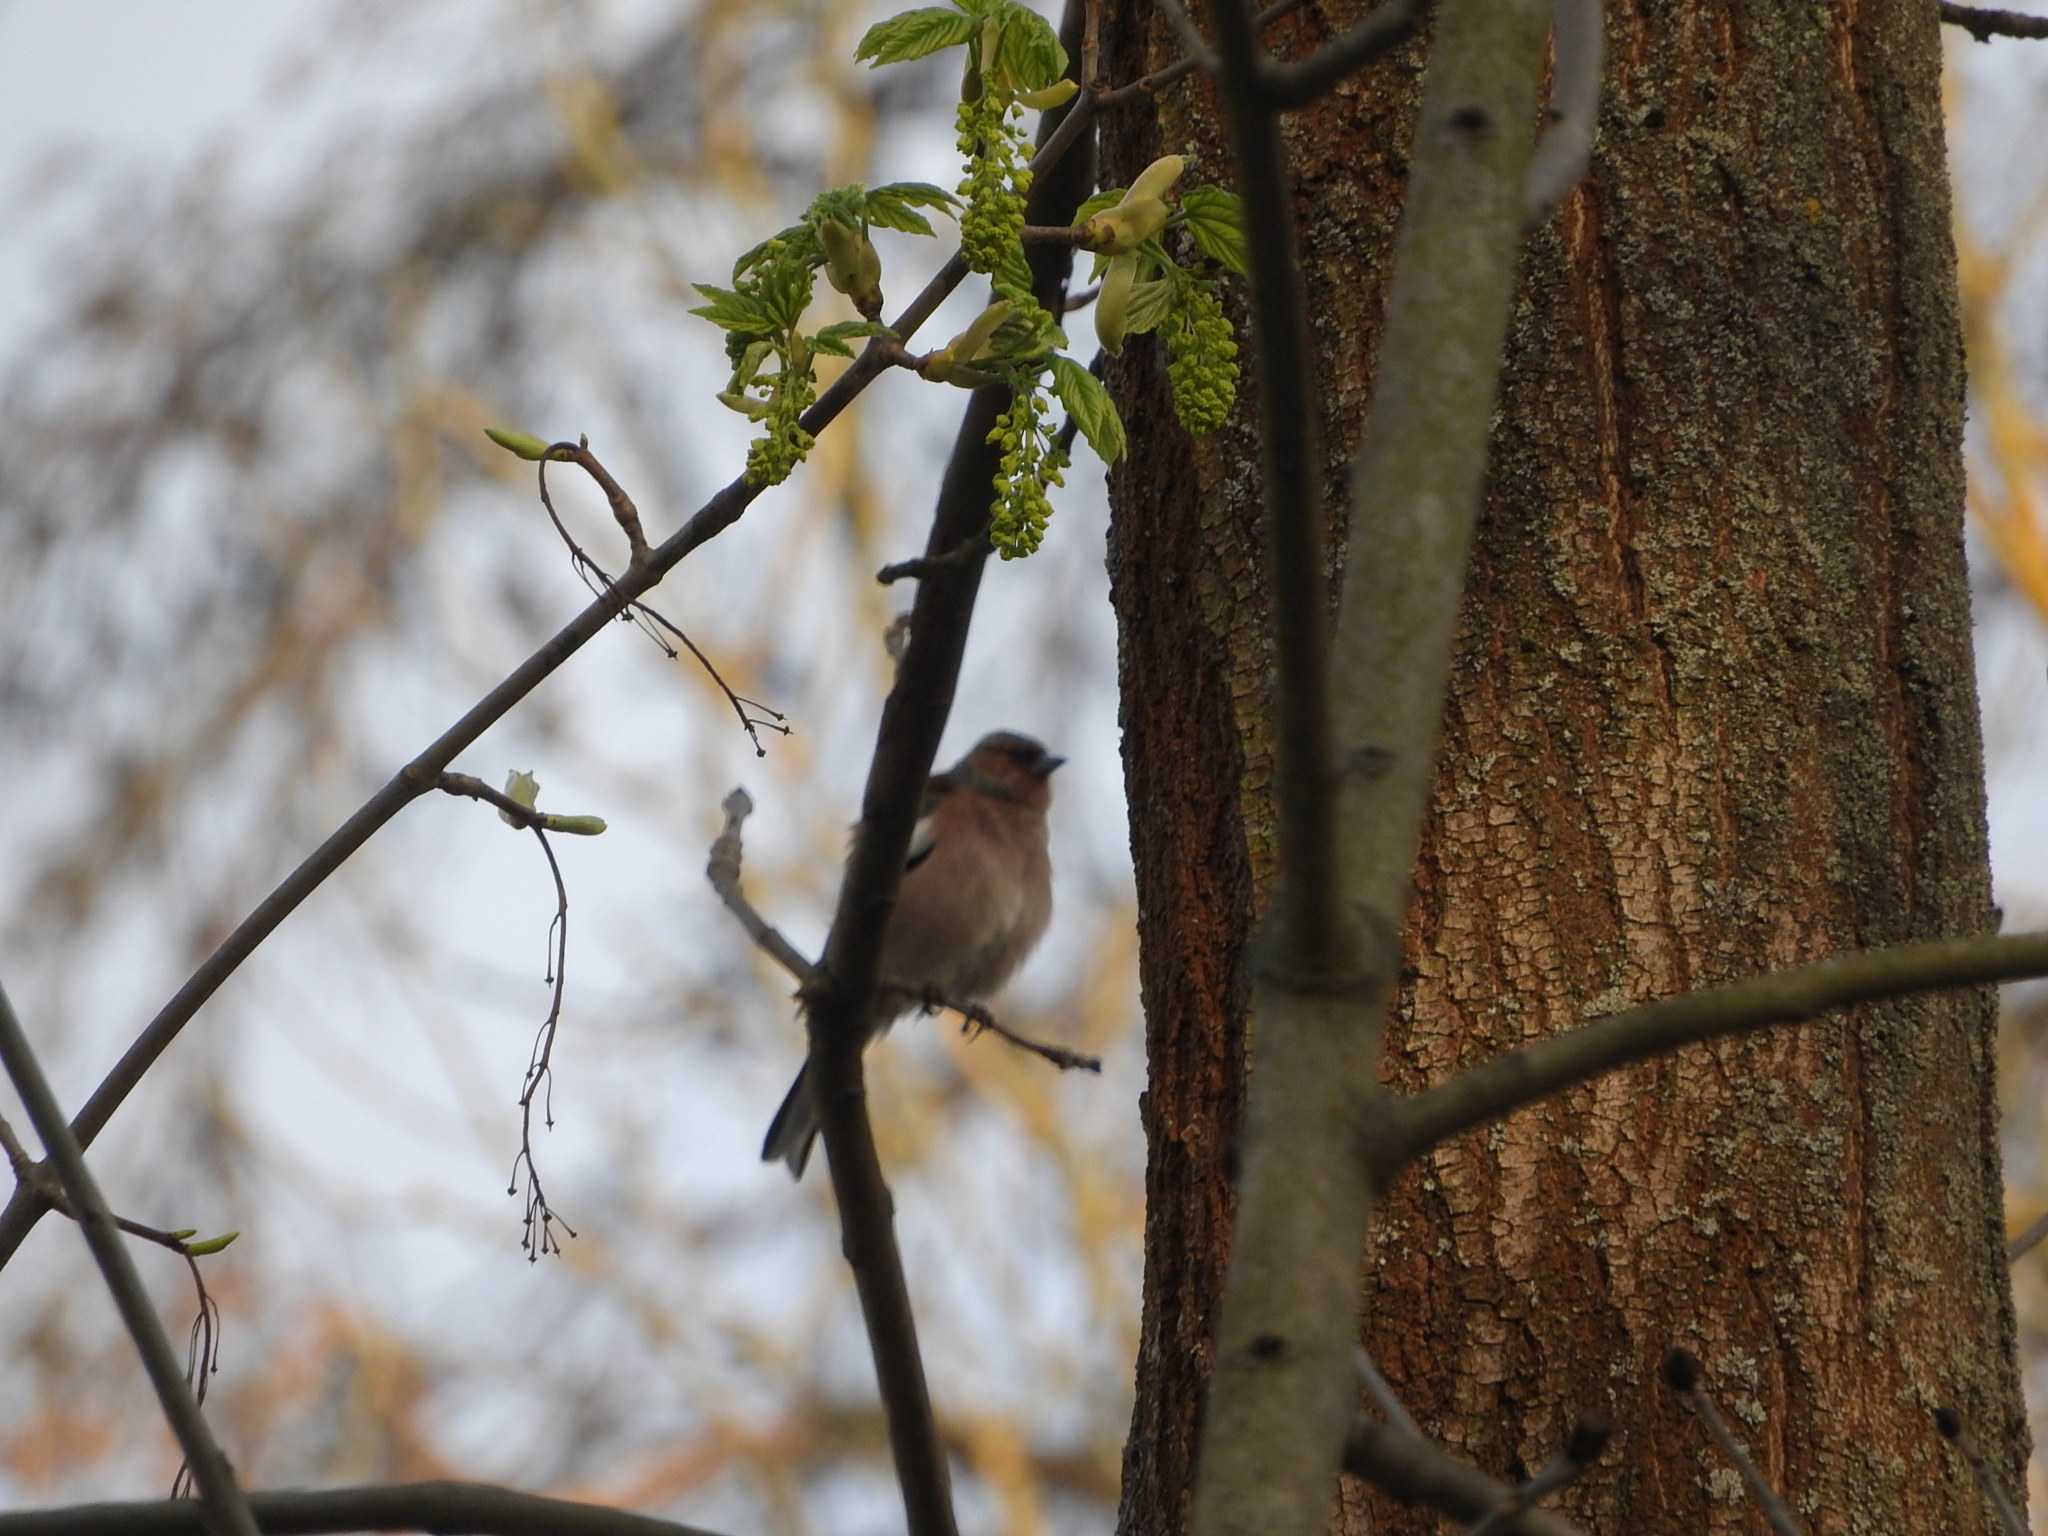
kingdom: Animalia
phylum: Chordata
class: Aves
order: Passeriformes
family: Fringillidae
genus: Fringilla
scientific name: Fringilla coelebs
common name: Common chaffinch
